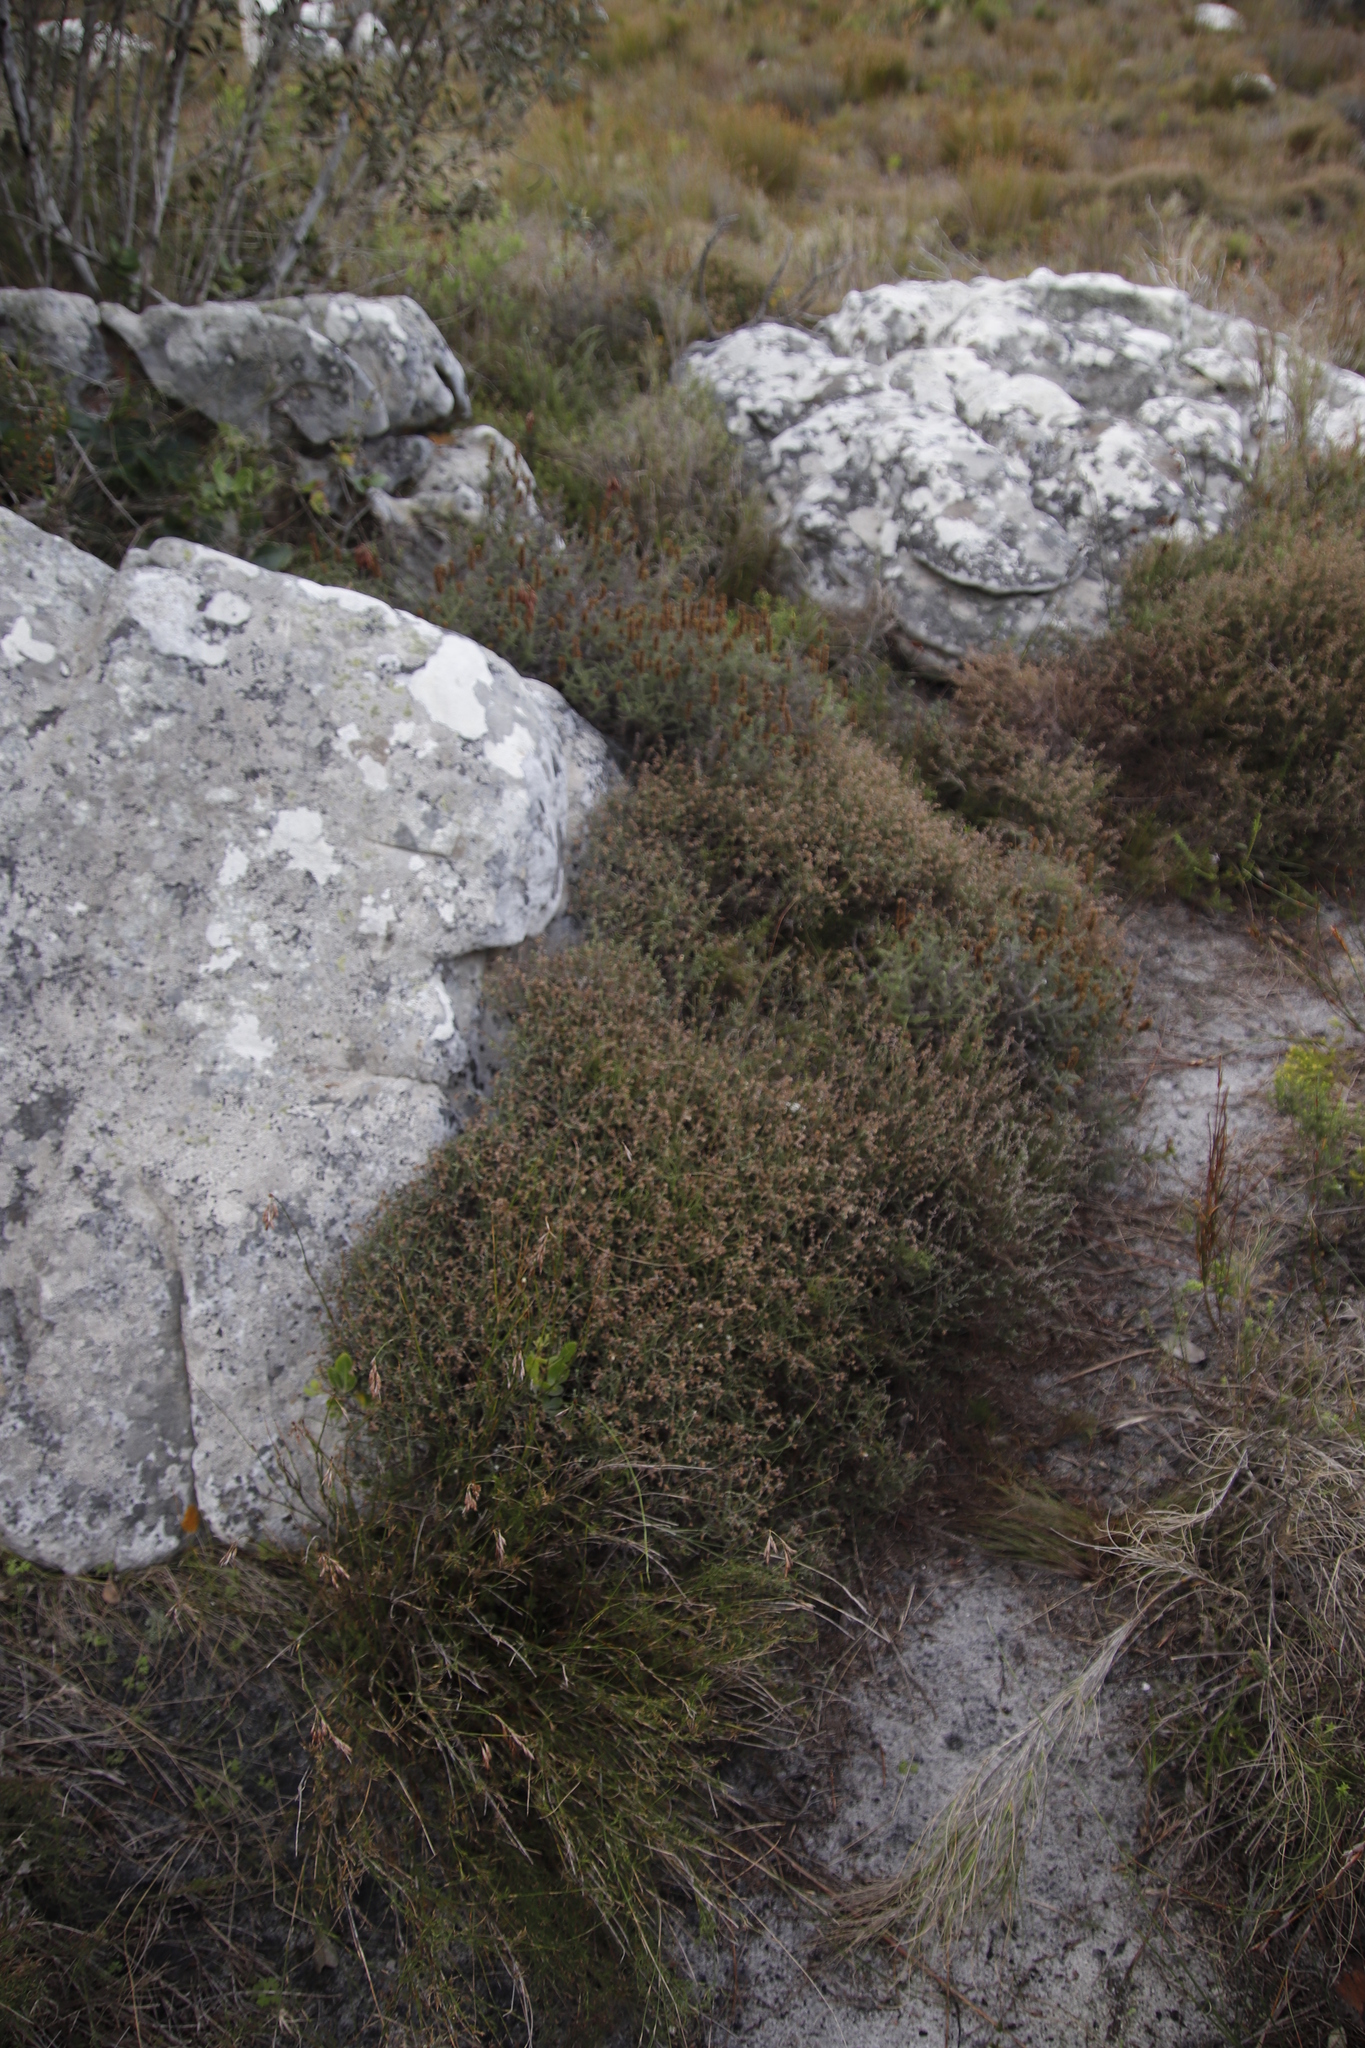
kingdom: Plantae
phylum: Tracheophyta
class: Magnoliopsida
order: Asterales
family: Asteraceae
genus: Myrovernix
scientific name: Myrovernix scaber
